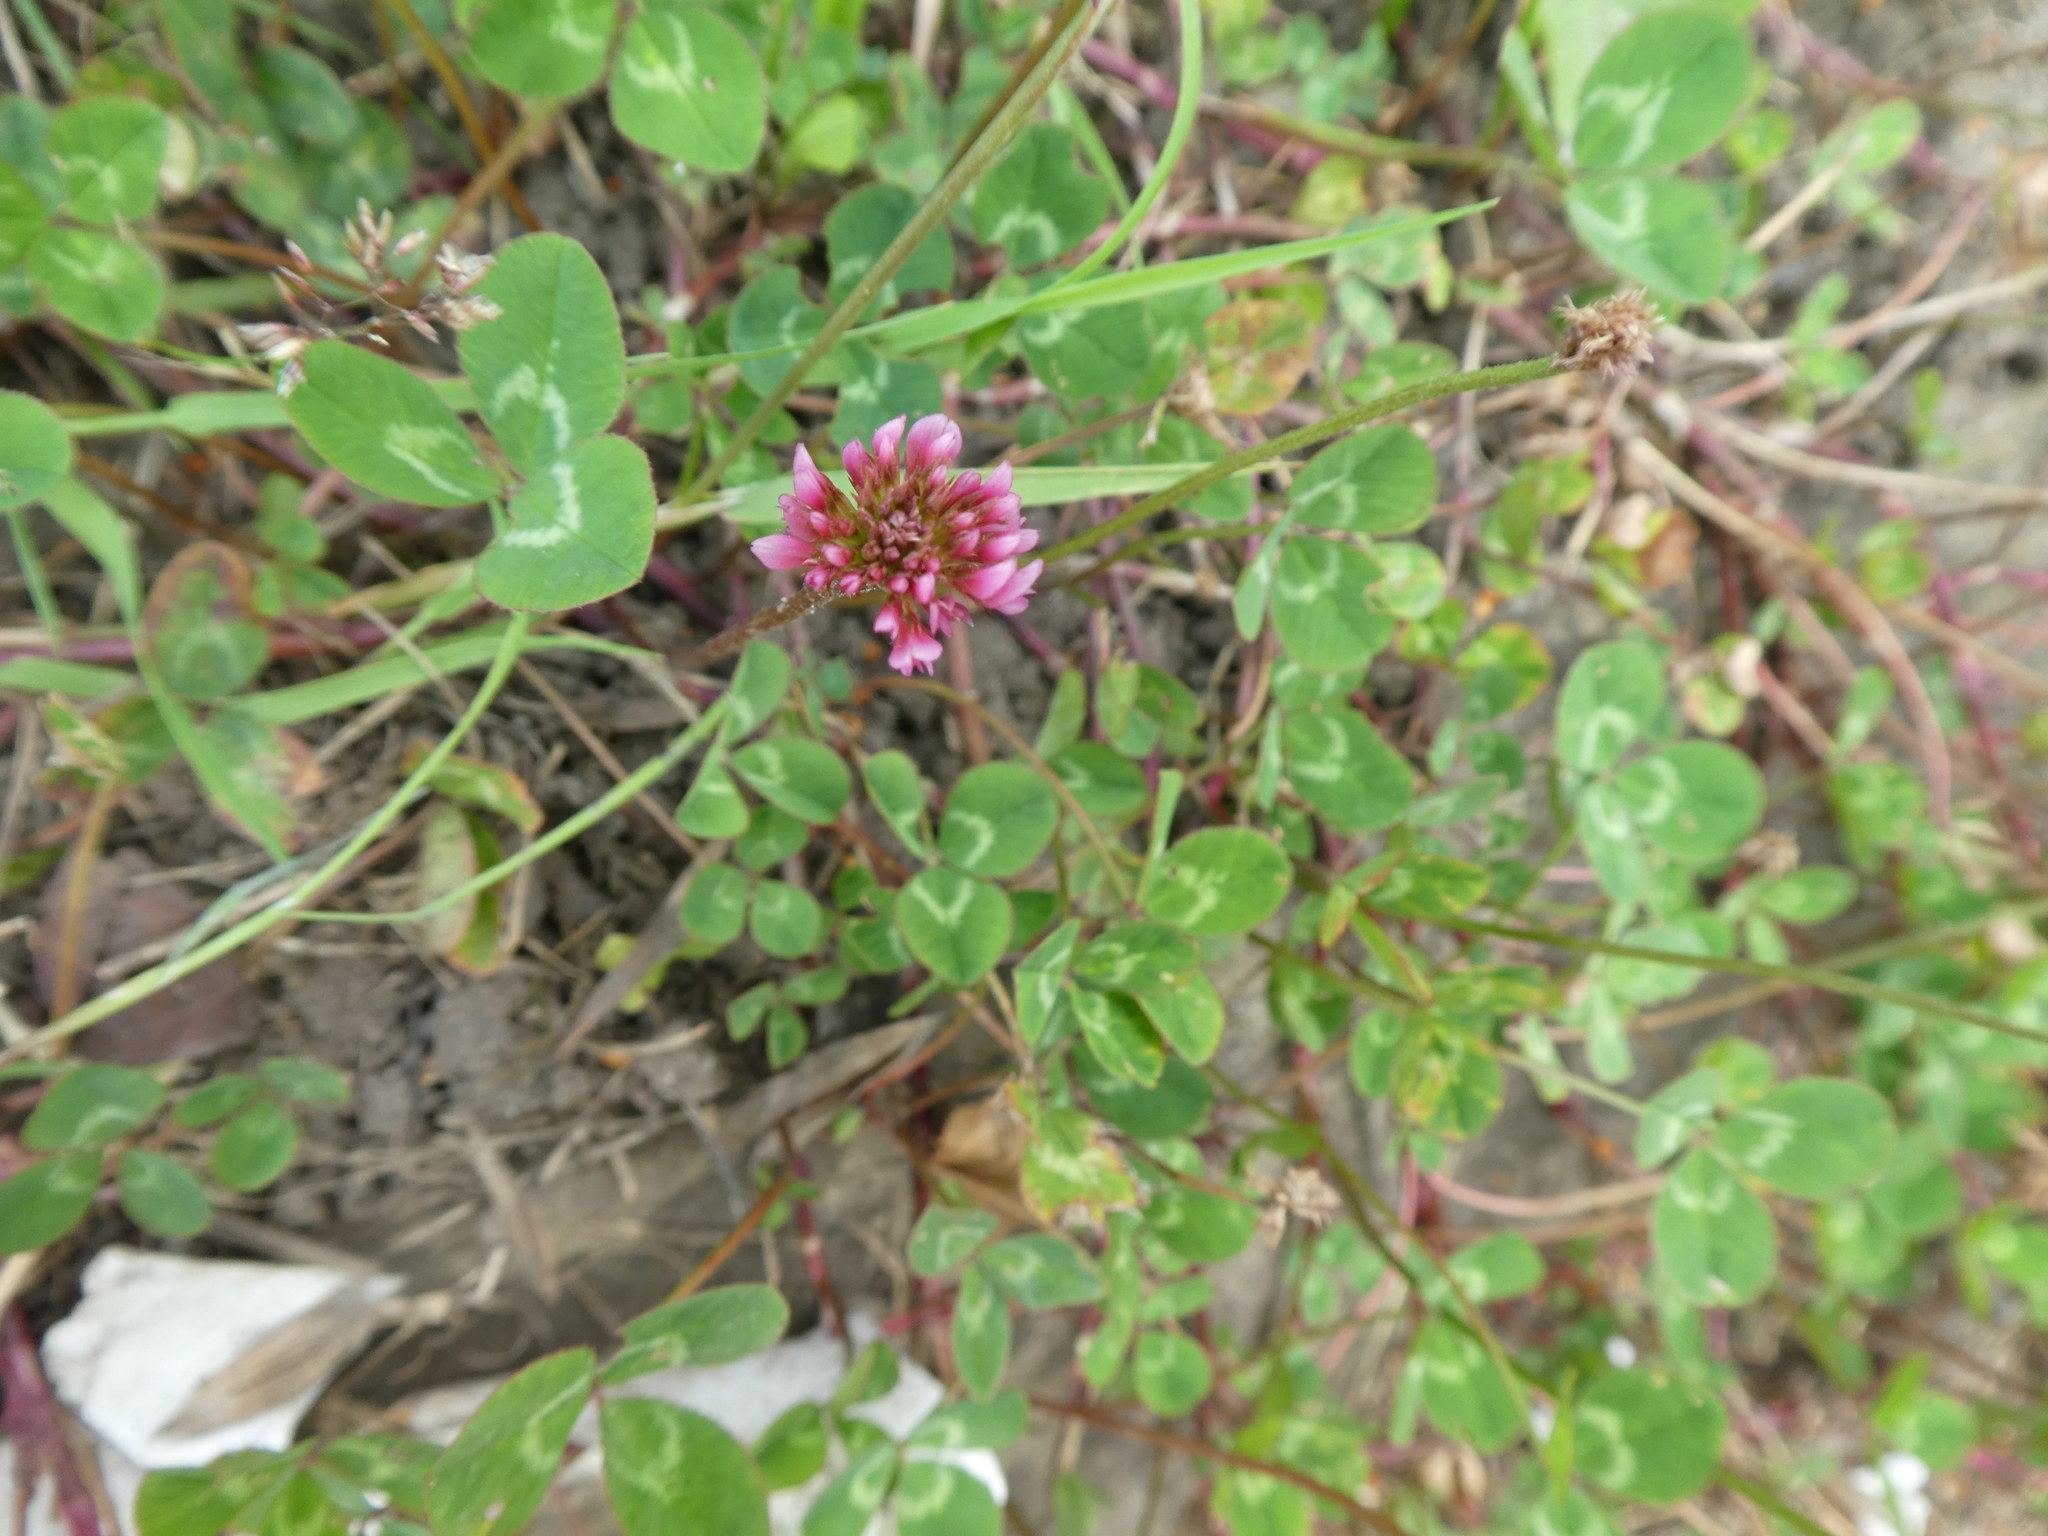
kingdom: Plantae
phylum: Tracheophyta
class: Magnoliopsida
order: Fabales
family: Fabaceae
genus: Trifolium
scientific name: Trifolium pratense
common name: Red clover
